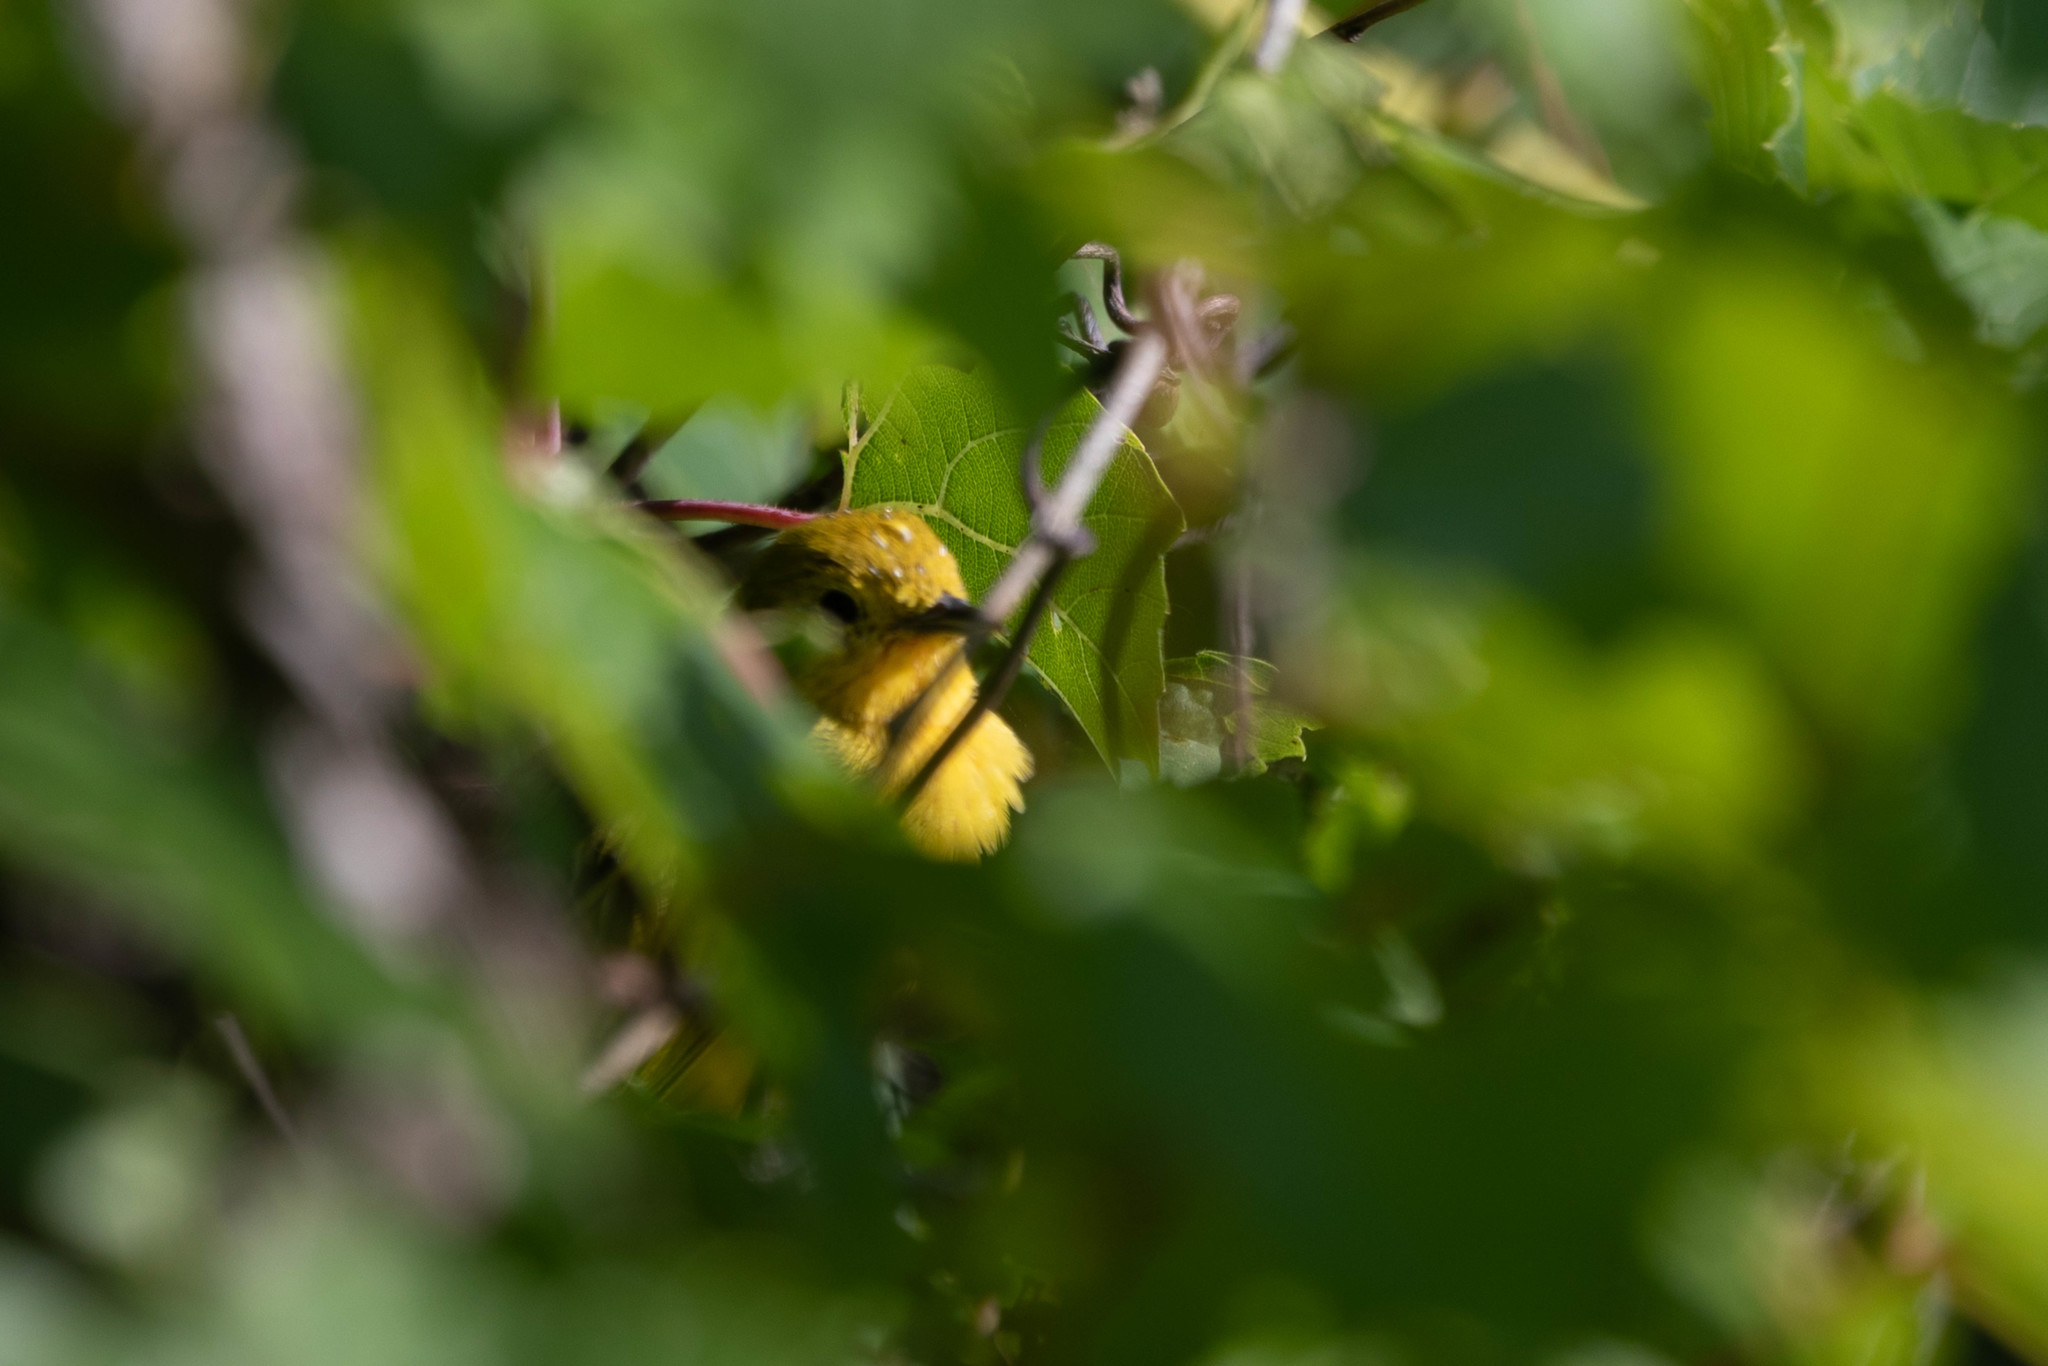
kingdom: Animalia
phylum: Chordata
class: Aves
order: Passeriformes
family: Parulidae
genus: Setophaga
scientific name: Setophaga petechia
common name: Yellow warbler
